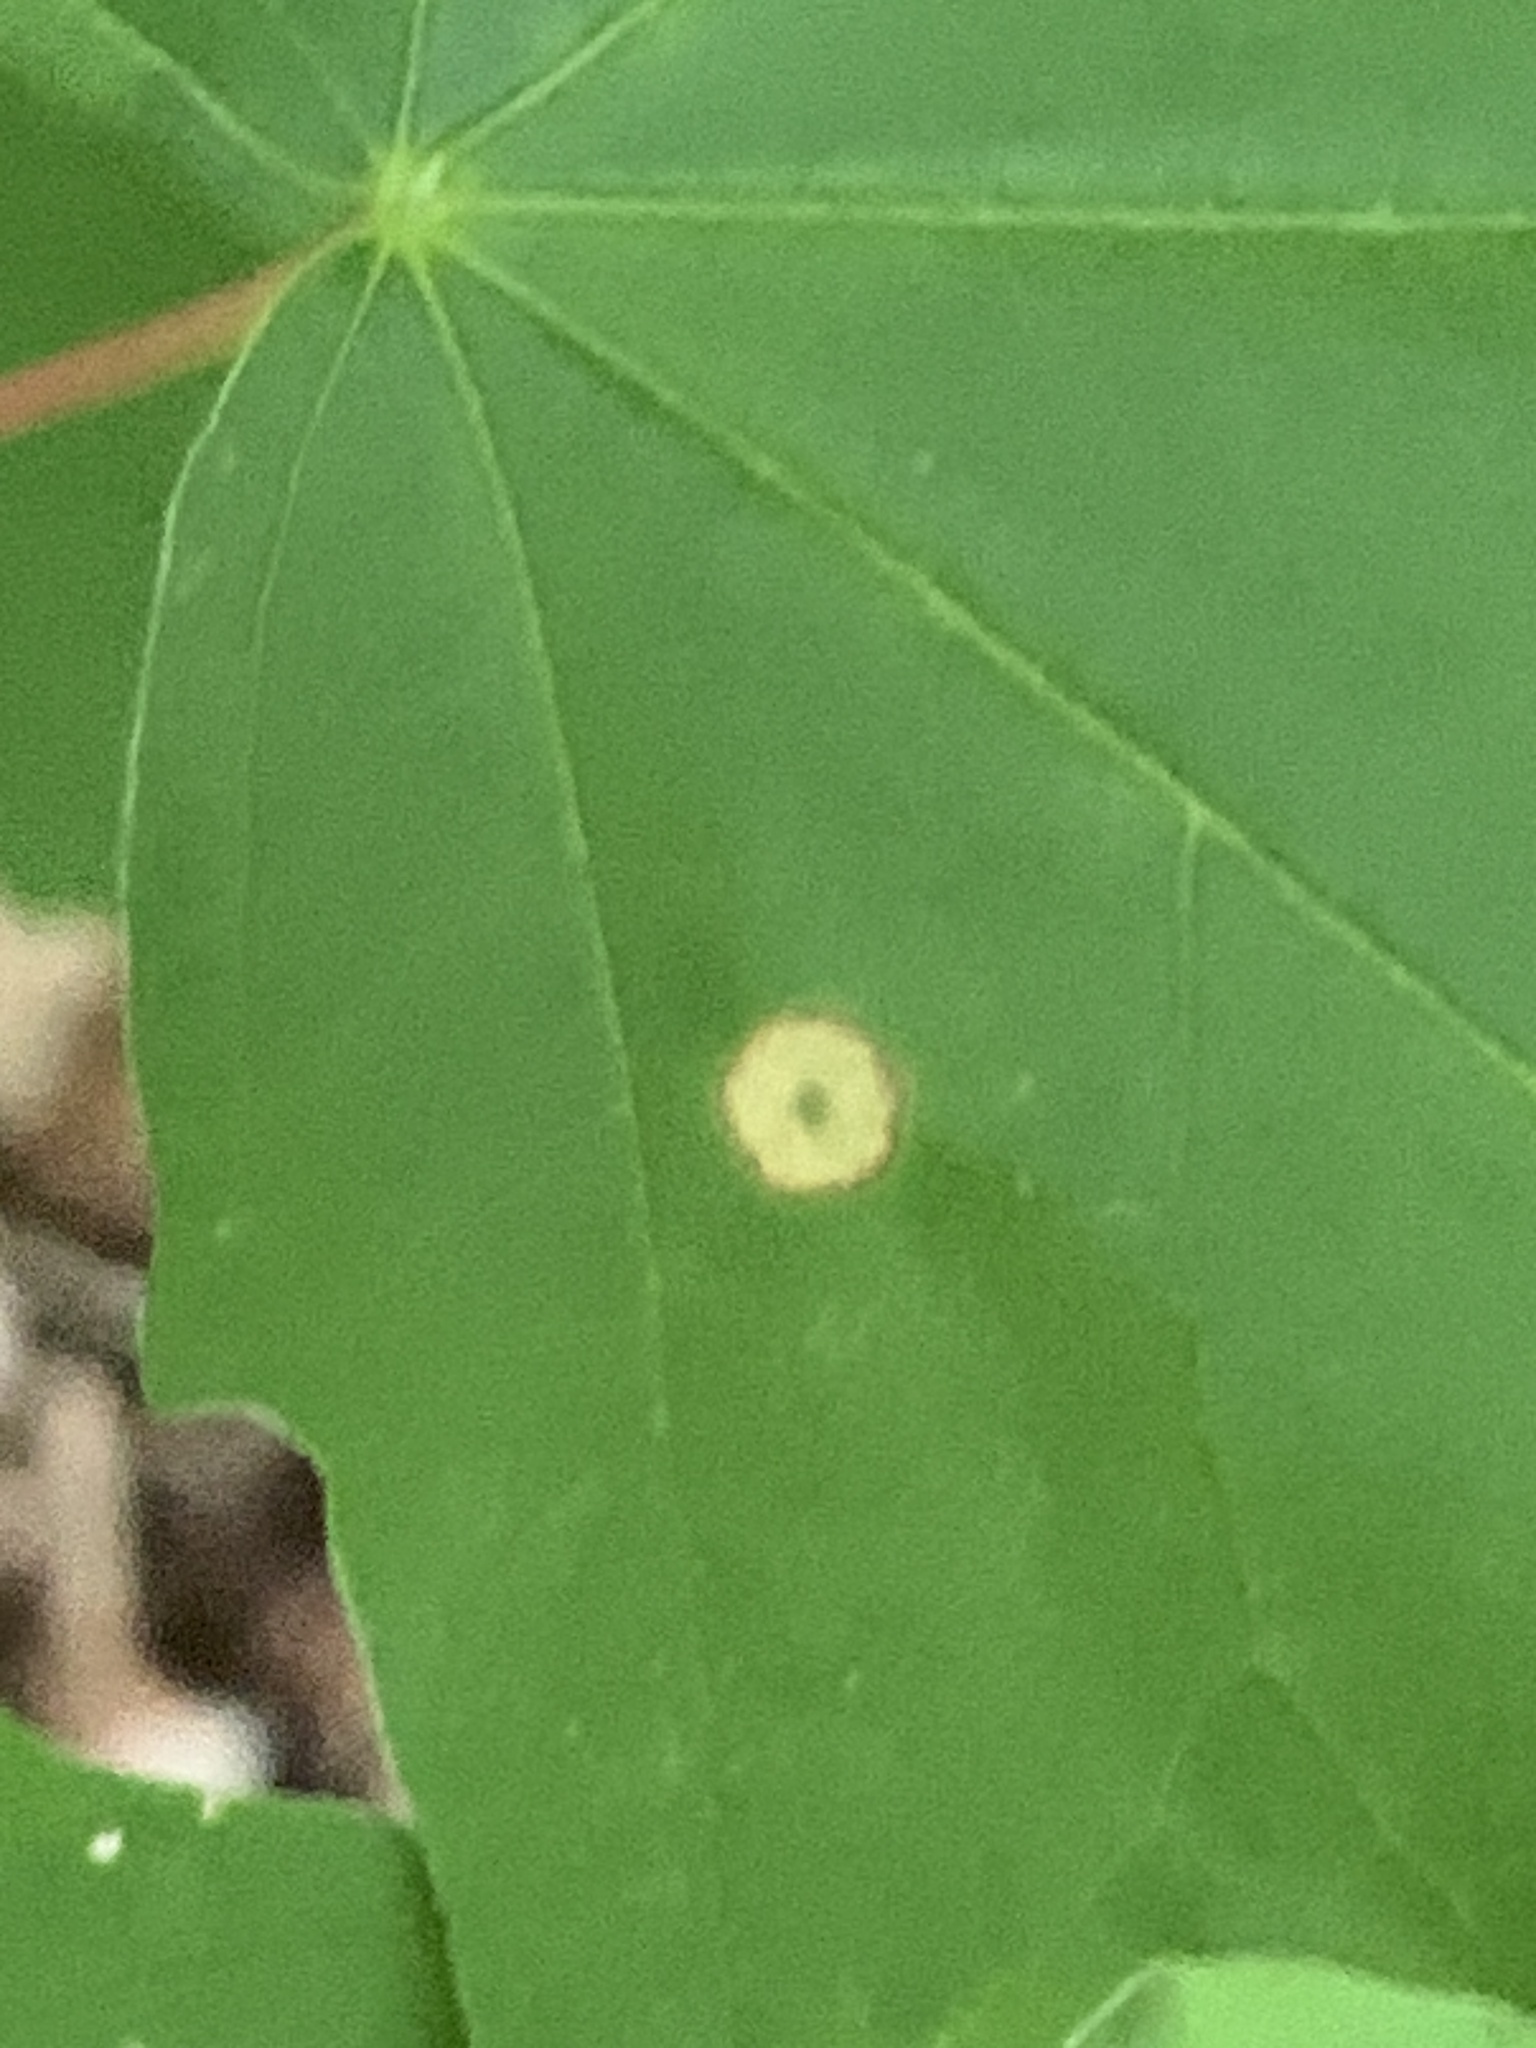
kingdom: Animalia
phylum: Arthropoda
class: Insecta
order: Diptera
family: Cecidomyiidae
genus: Acericecis
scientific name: Acericecis ocellaris
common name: Ocellate gall midge
